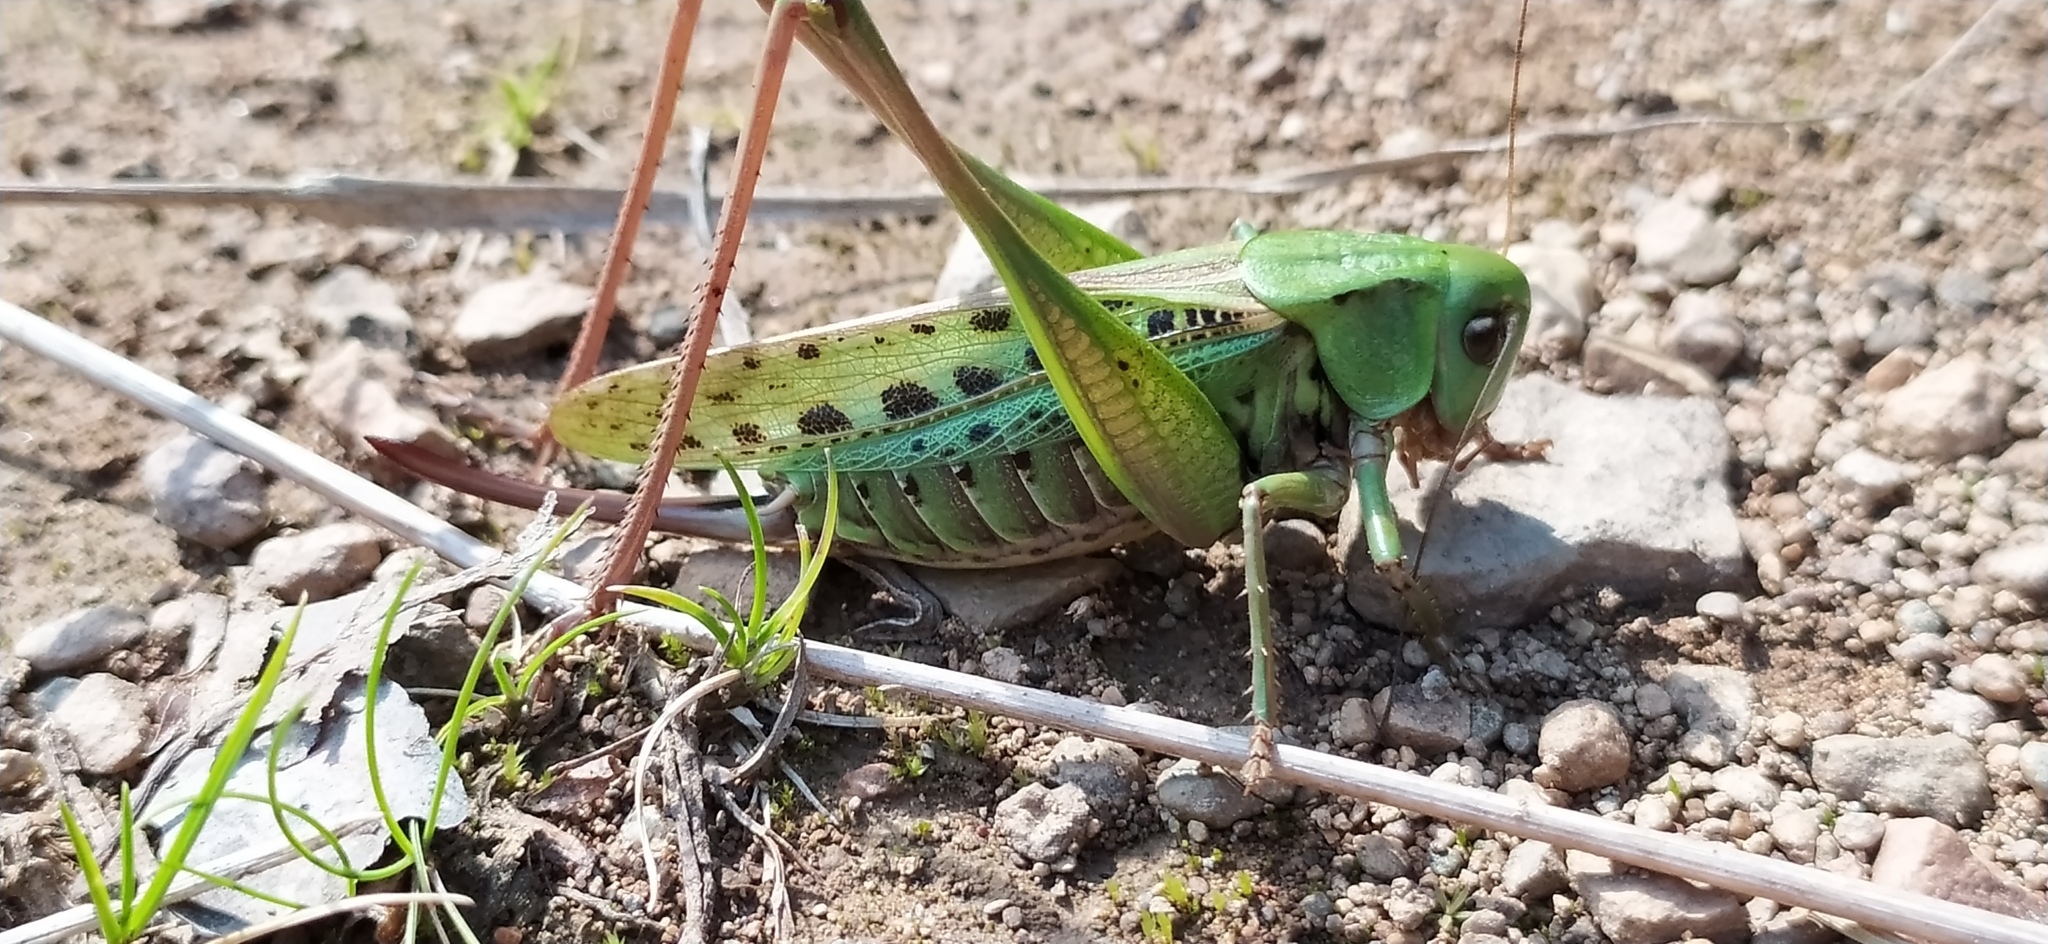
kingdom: Animalia
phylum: Arthropoda
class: Insecta
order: Orthoptera
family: Tettigoniidae
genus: Decticus
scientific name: Decticus verrucivorus
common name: Wart-biter
